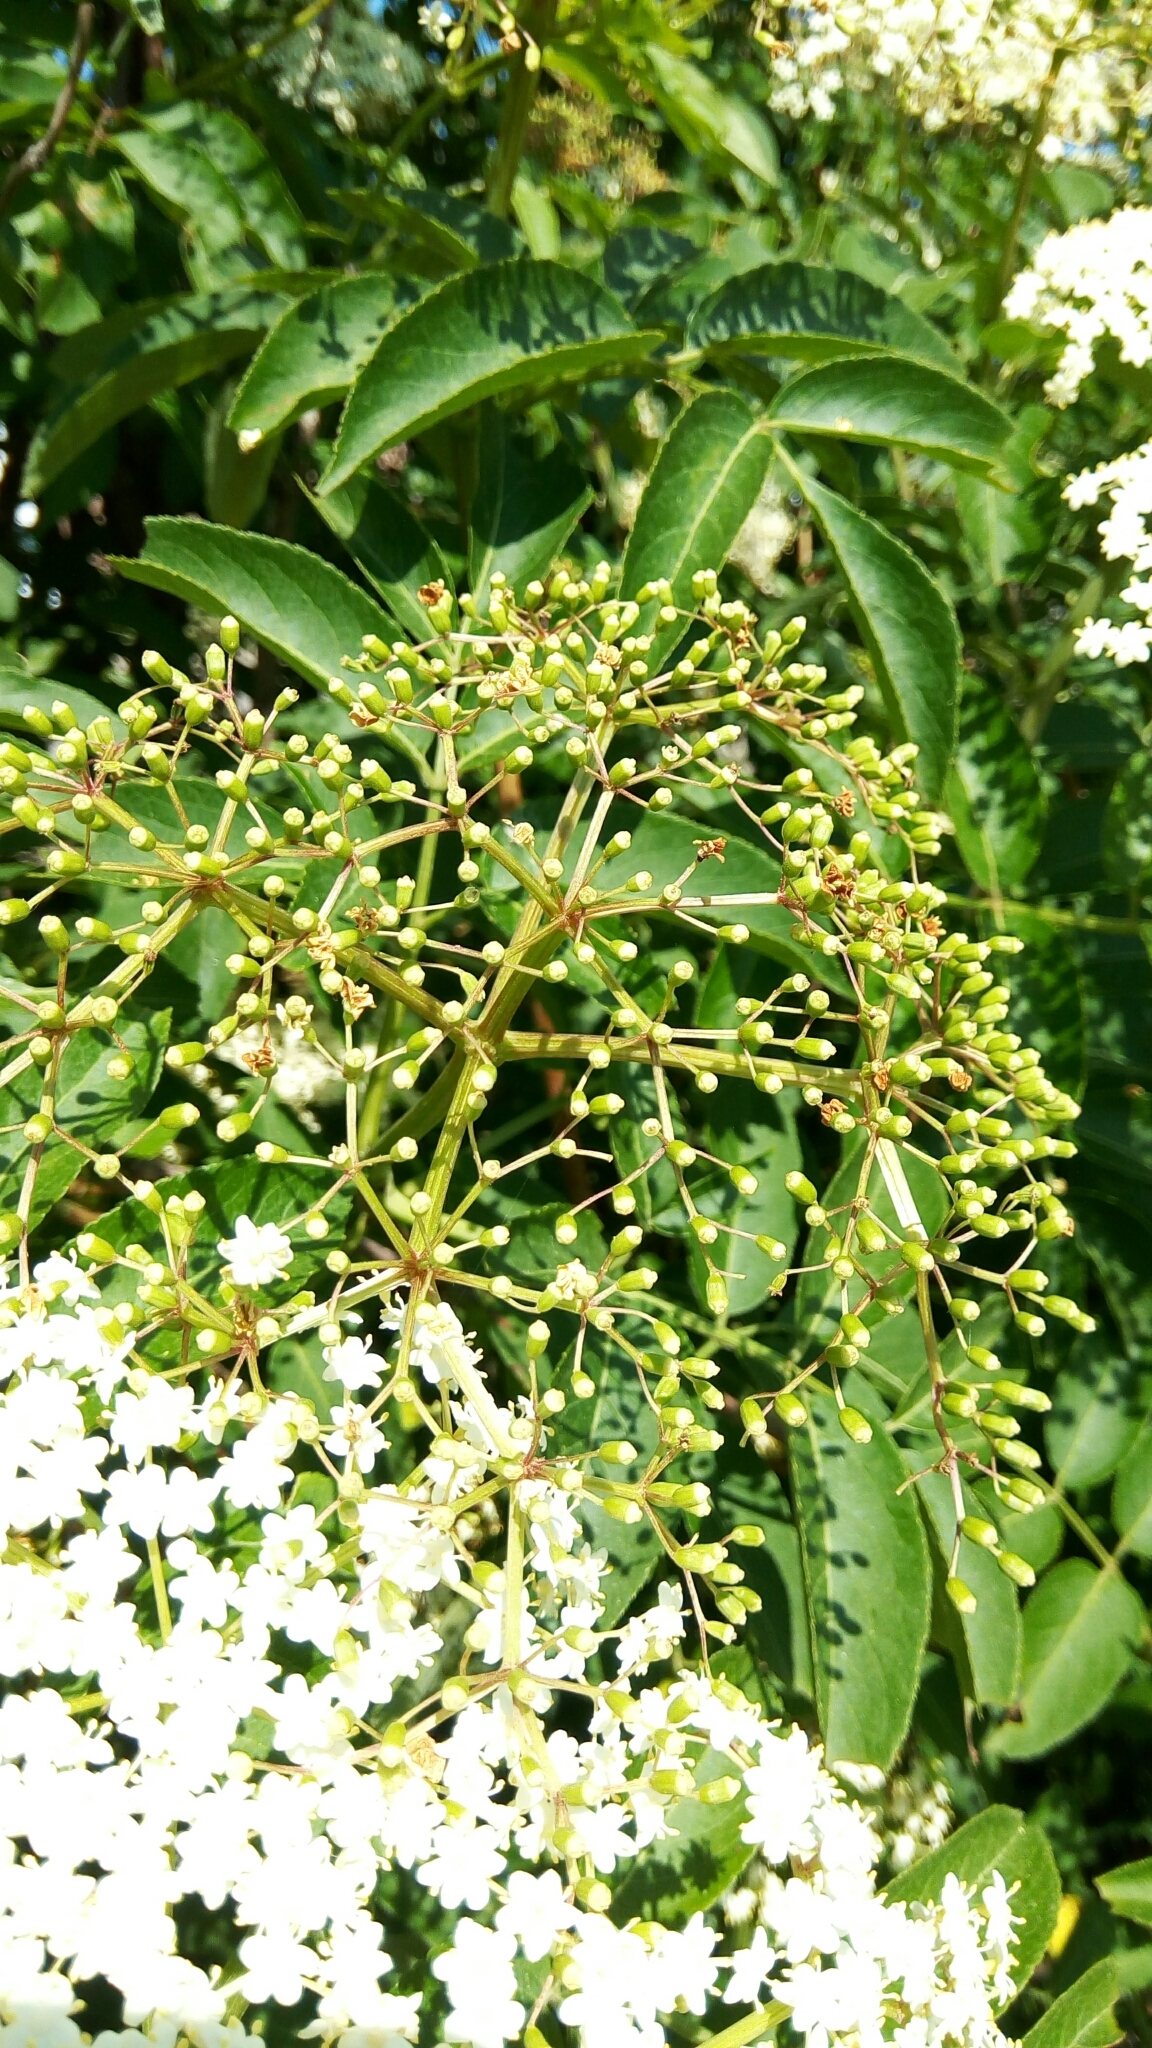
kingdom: Plantae
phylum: Tracheophyta
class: Magnoliopsida
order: Dipsacales
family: Viburnaceae
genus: Sambucus
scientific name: Sambucus canadensis
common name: American elder
